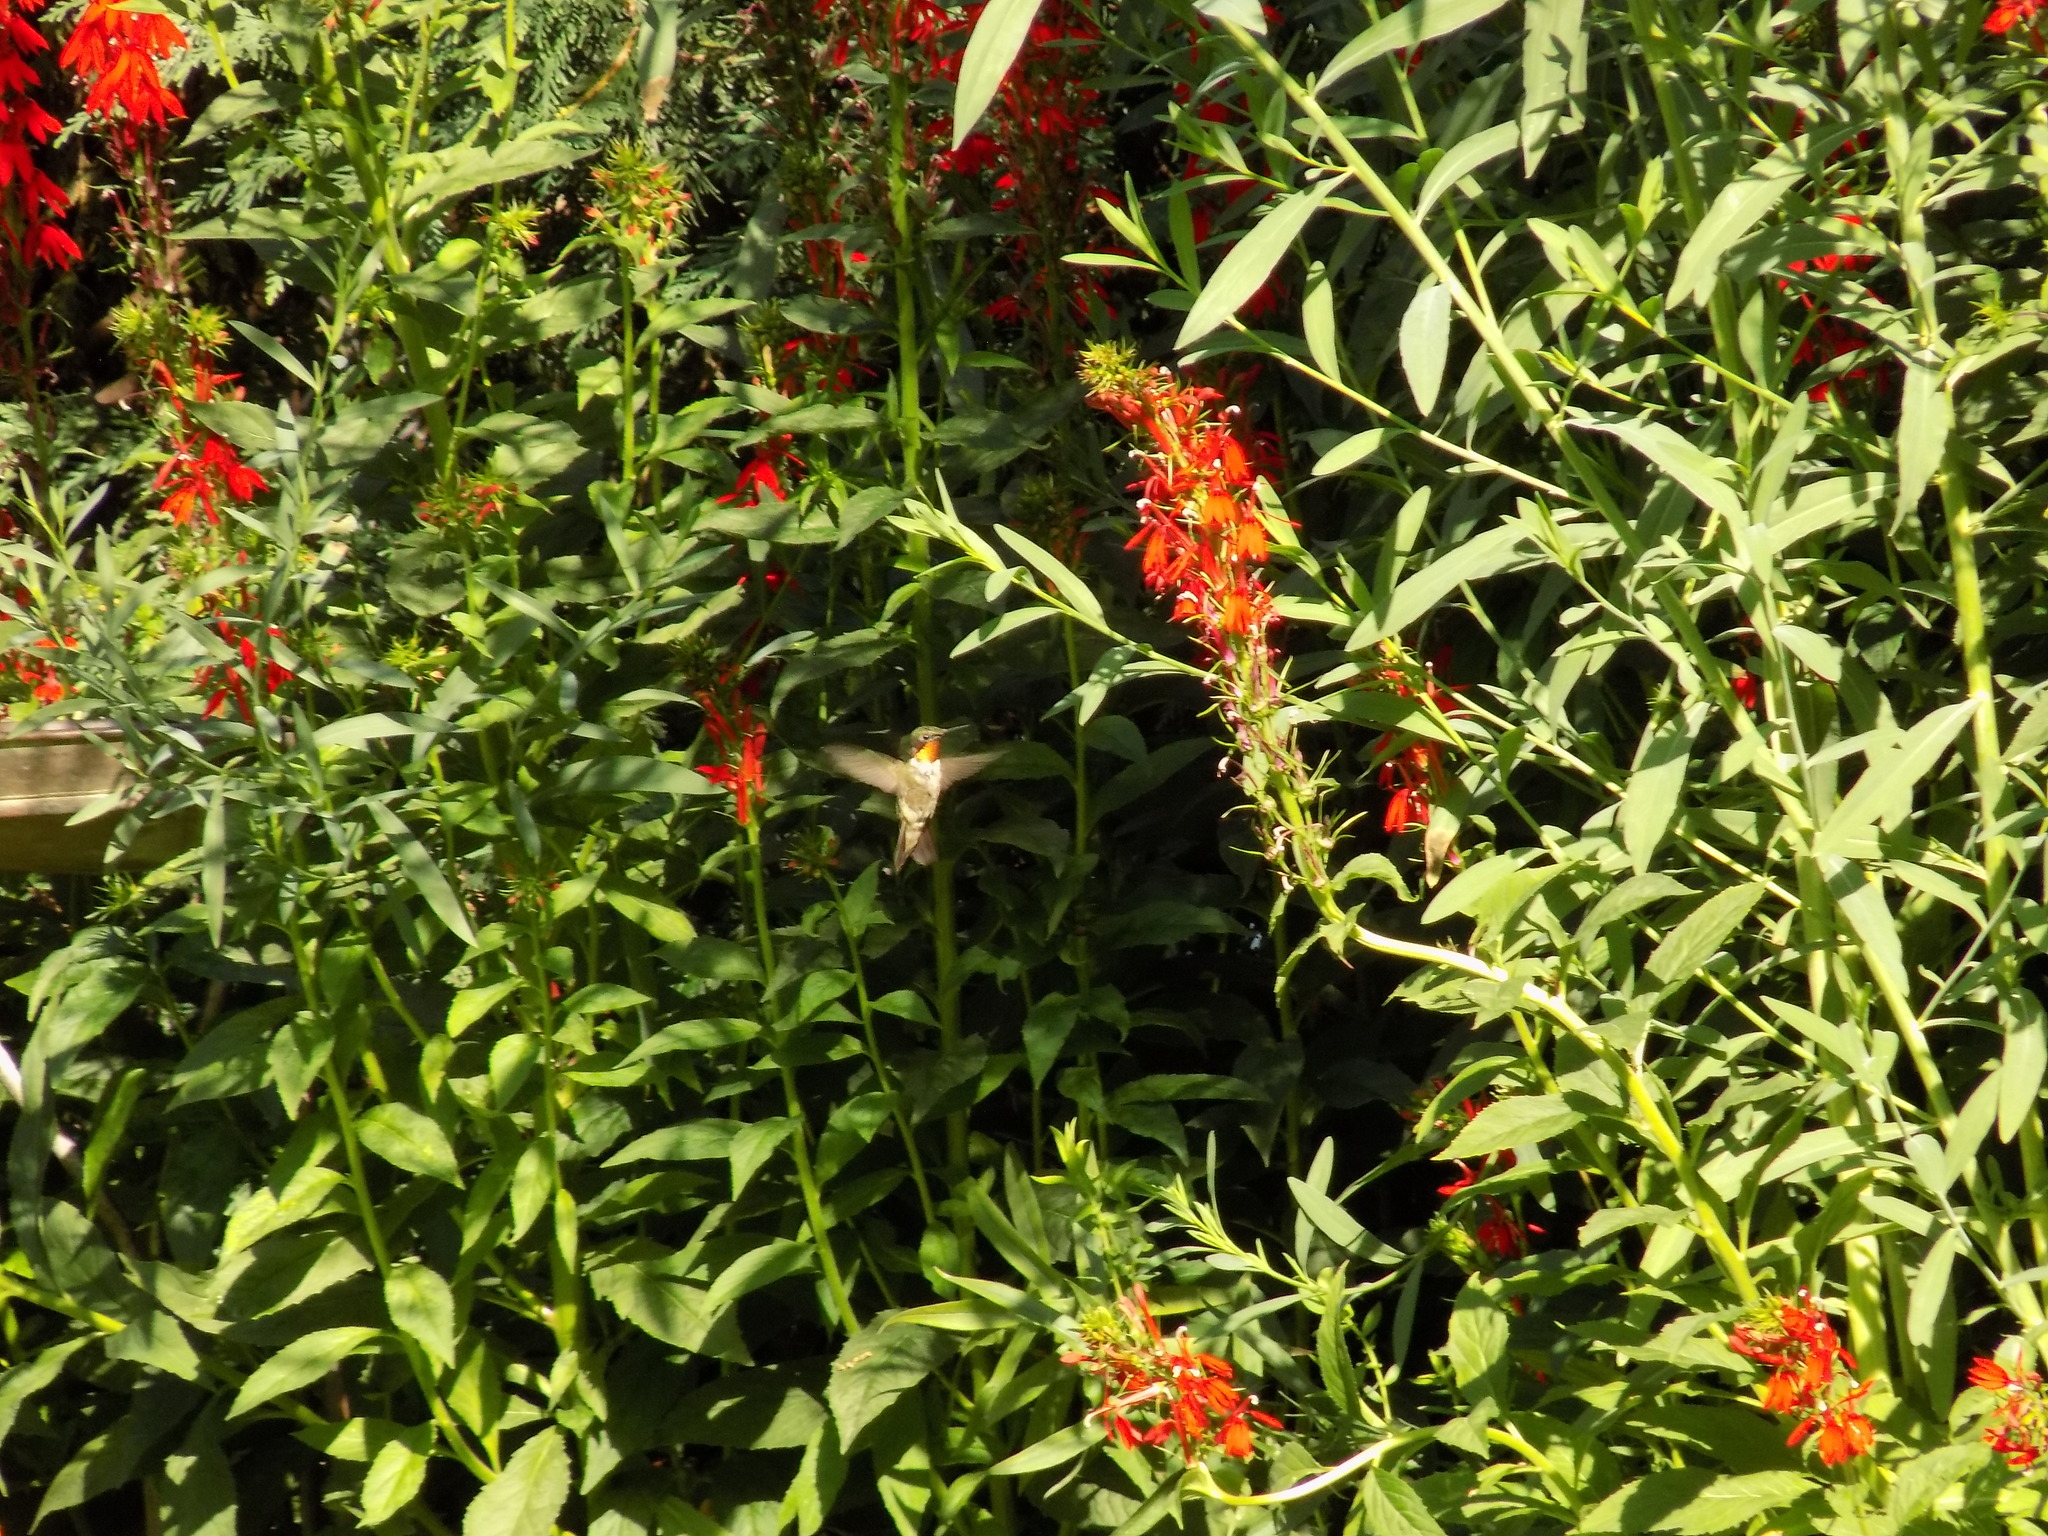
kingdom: Animalia
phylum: Chordata
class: Aves
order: Apodiformes
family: Trochilidae
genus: Archilochus
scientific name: Archilochus colubris
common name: Ruby-throated hummingbird
